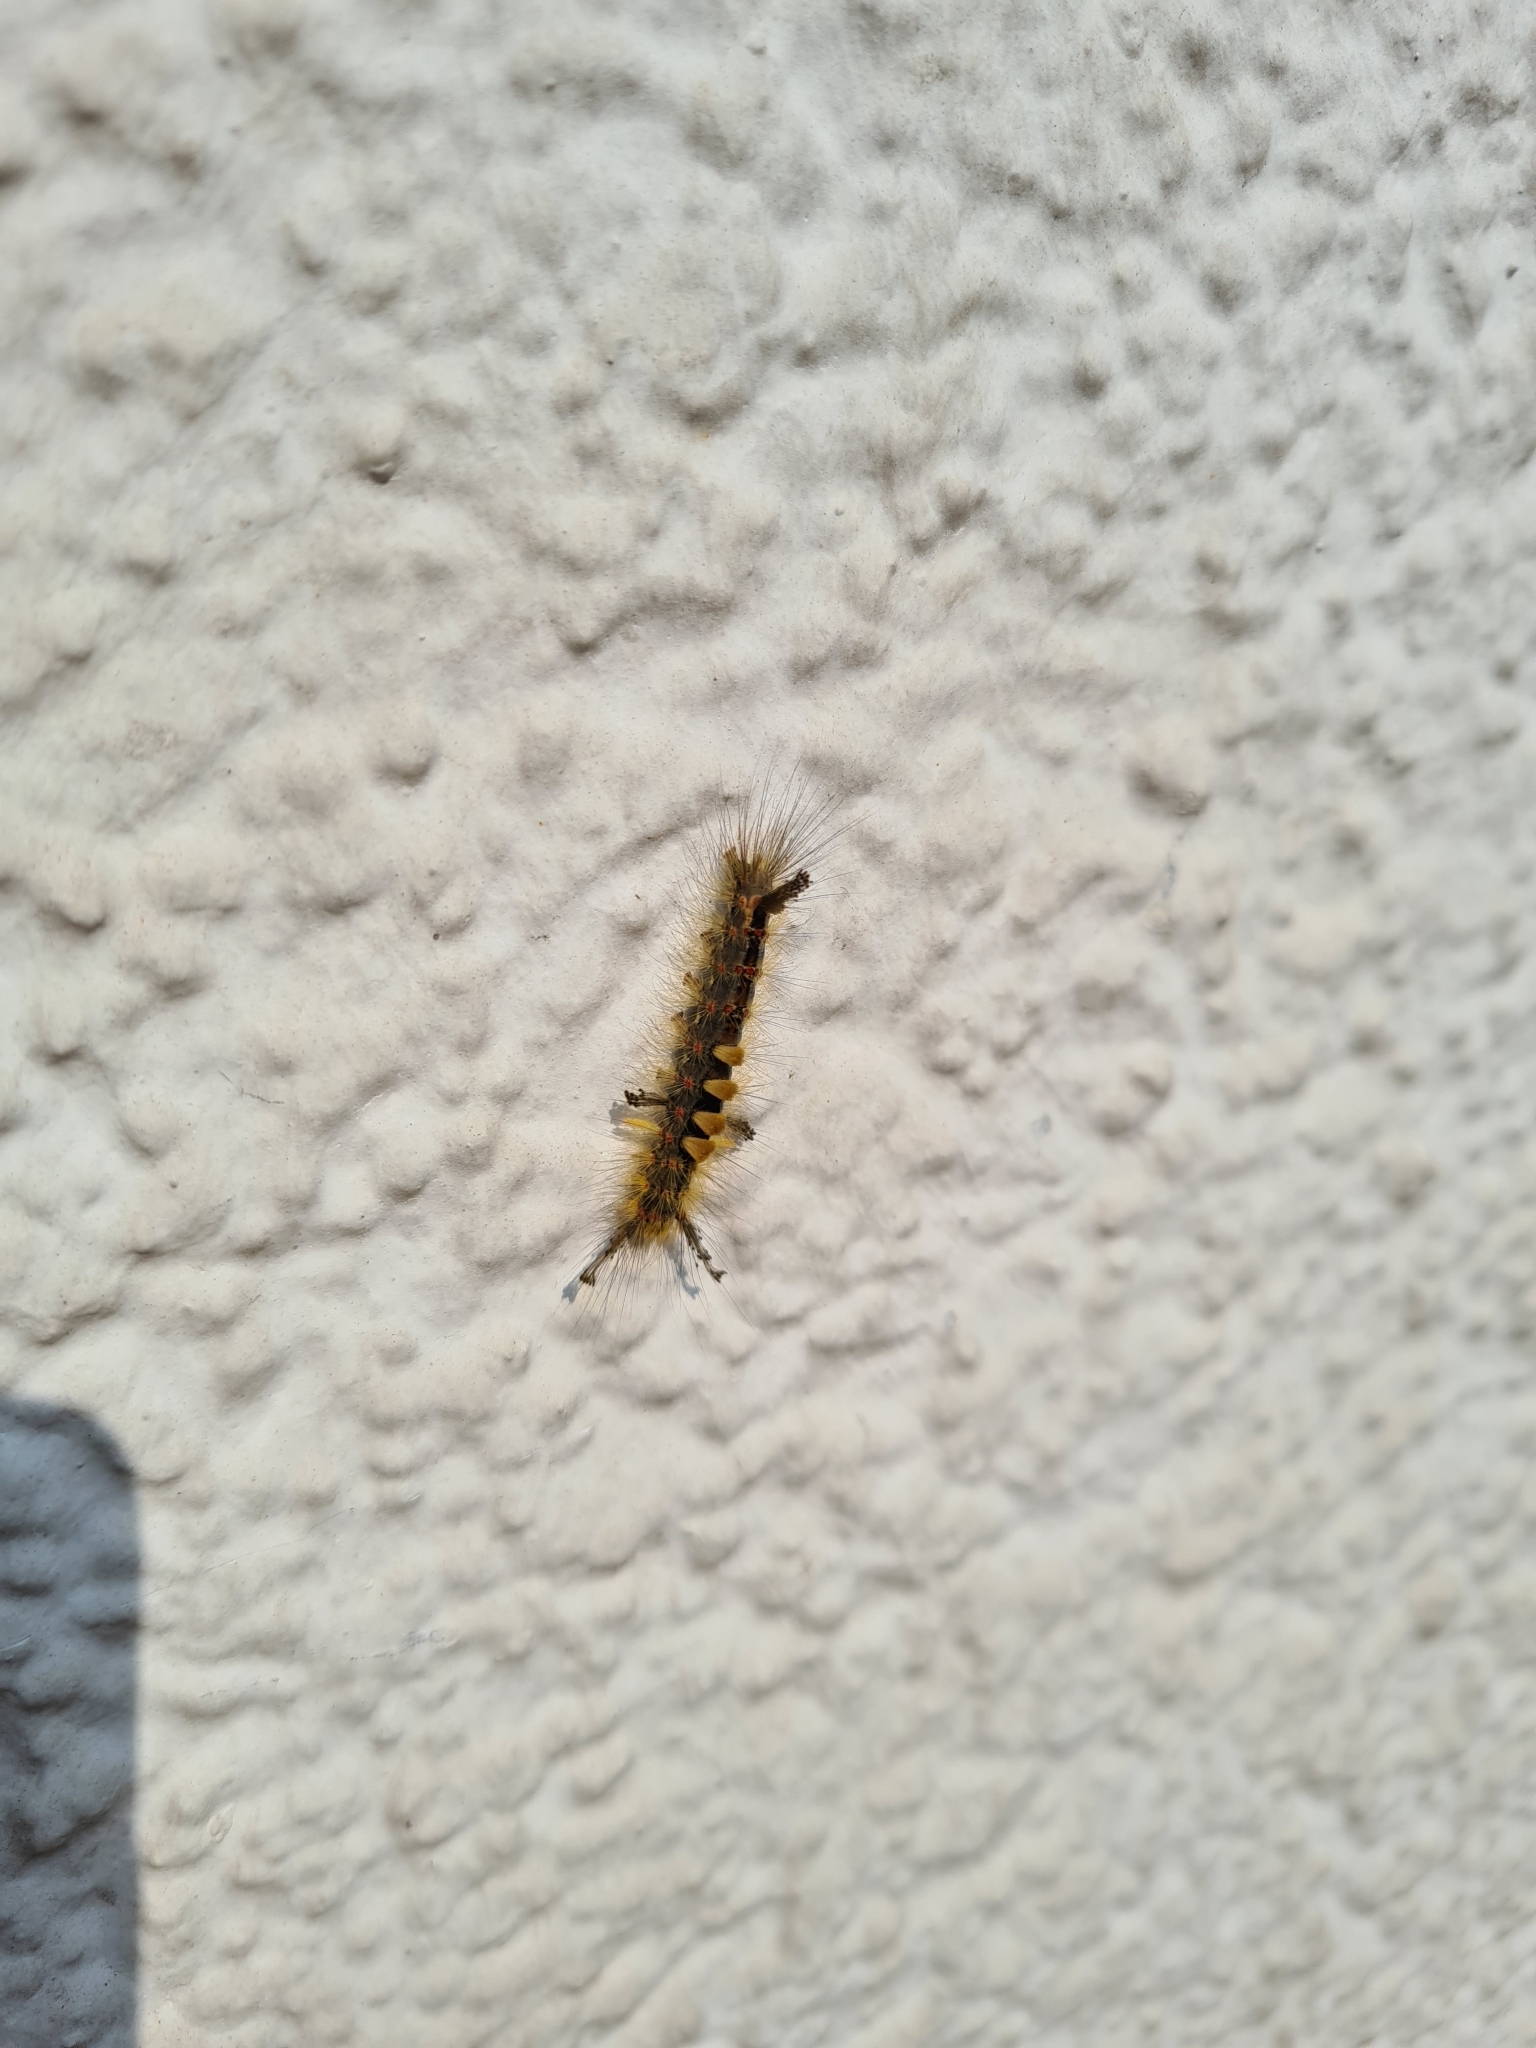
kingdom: Animalia
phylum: Arthropoda
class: Insecta
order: Lepidoptera
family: Erebidae
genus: Orgyia
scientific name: Orgyia antiqua
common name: Vapourer
